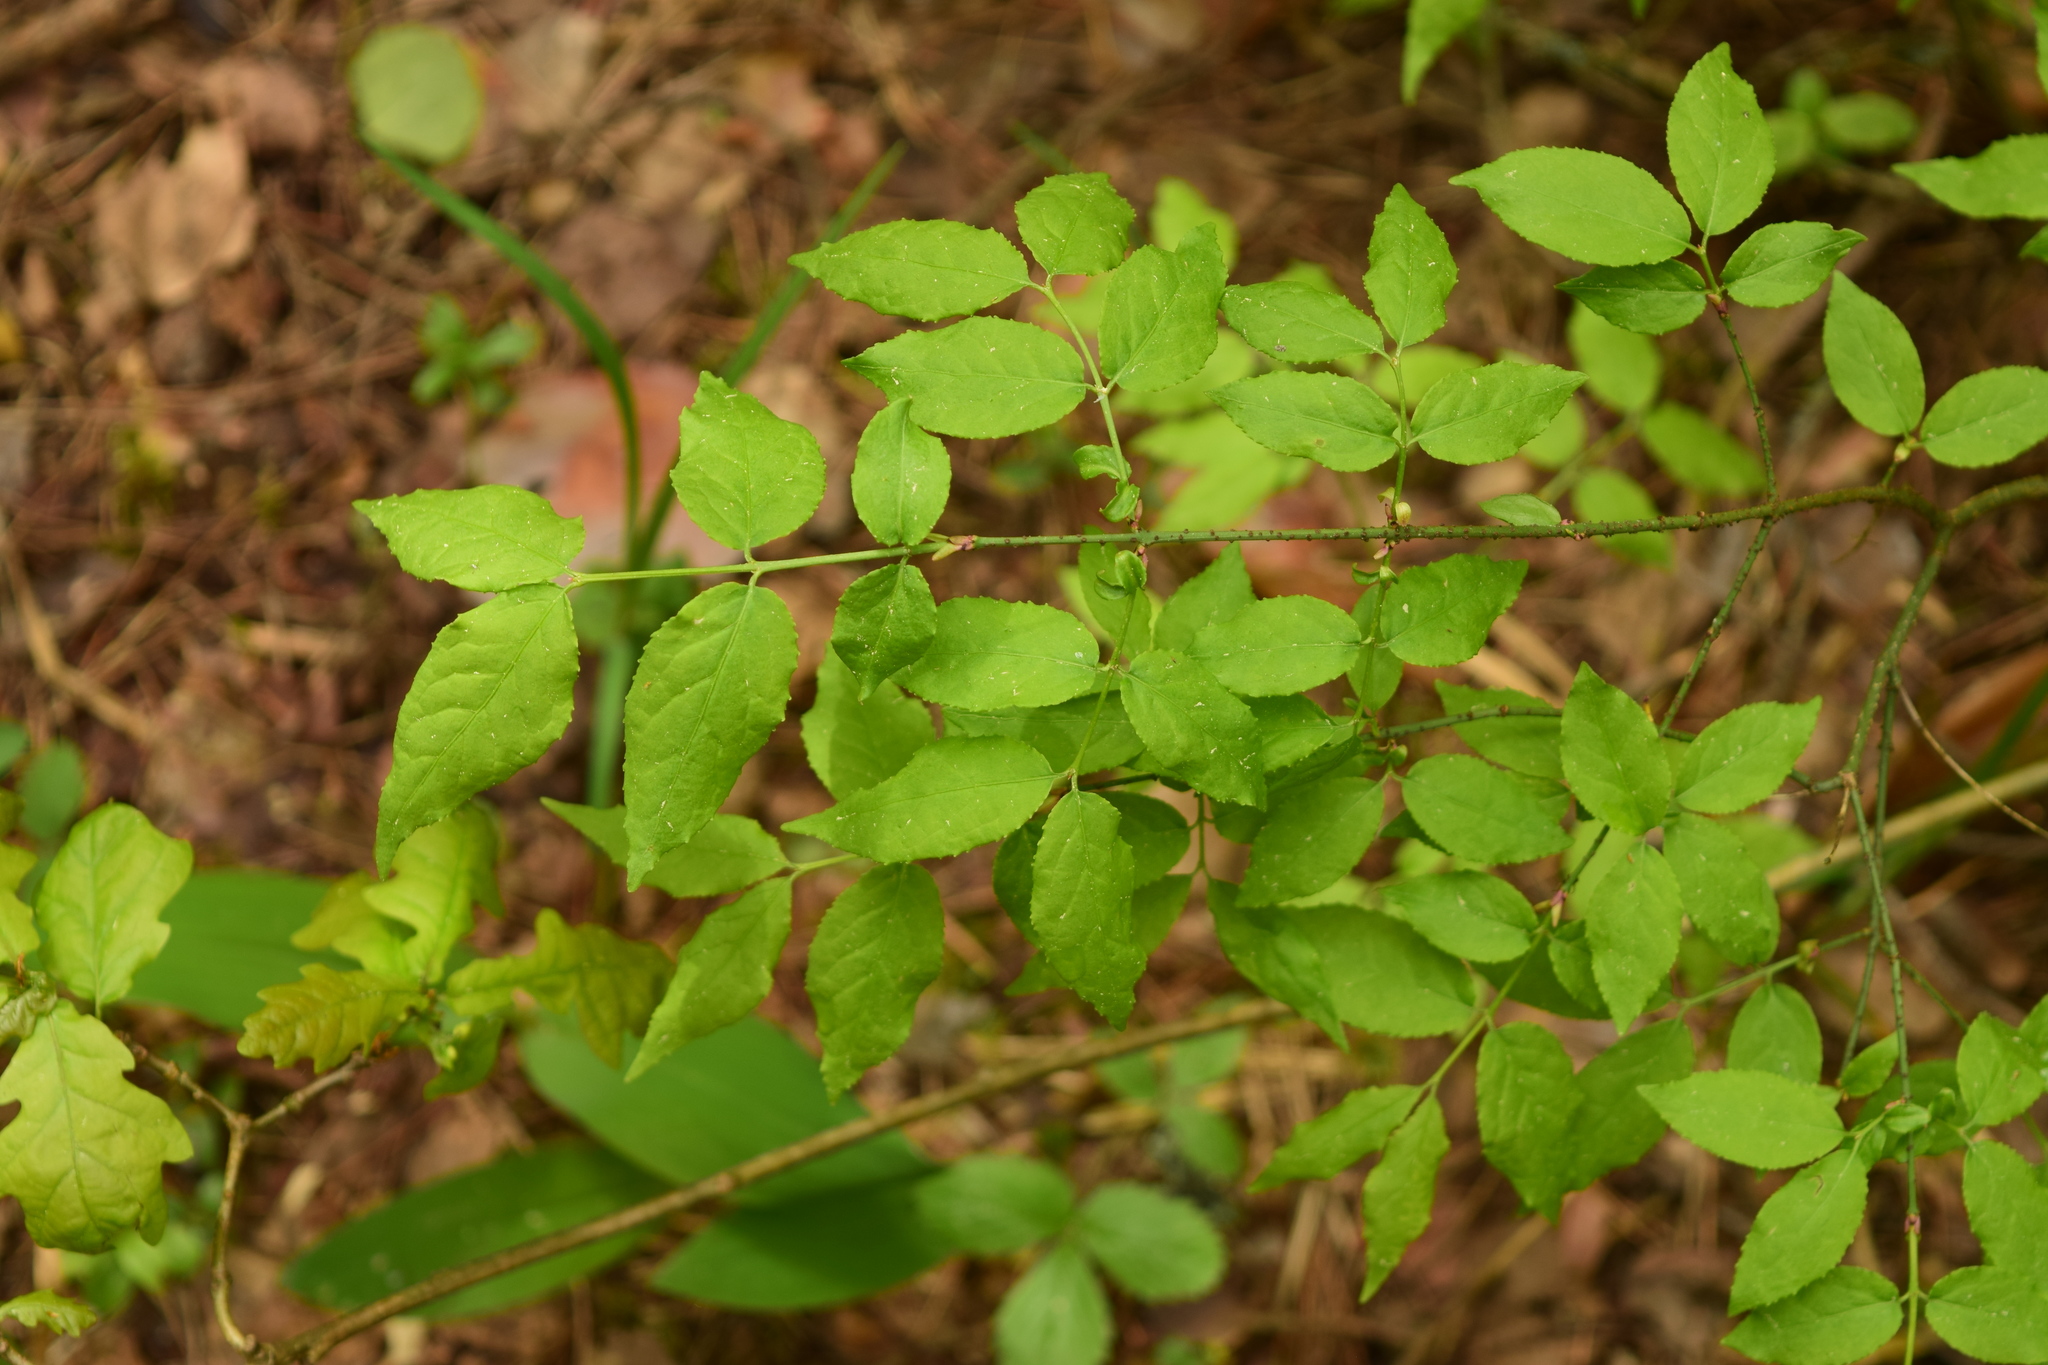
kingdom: Plantae
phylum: Tracheophyta
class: Magnoliopsida
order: Celastrales
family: Celastraceae
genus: Euonymus
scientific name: Euonymus verrucosus
